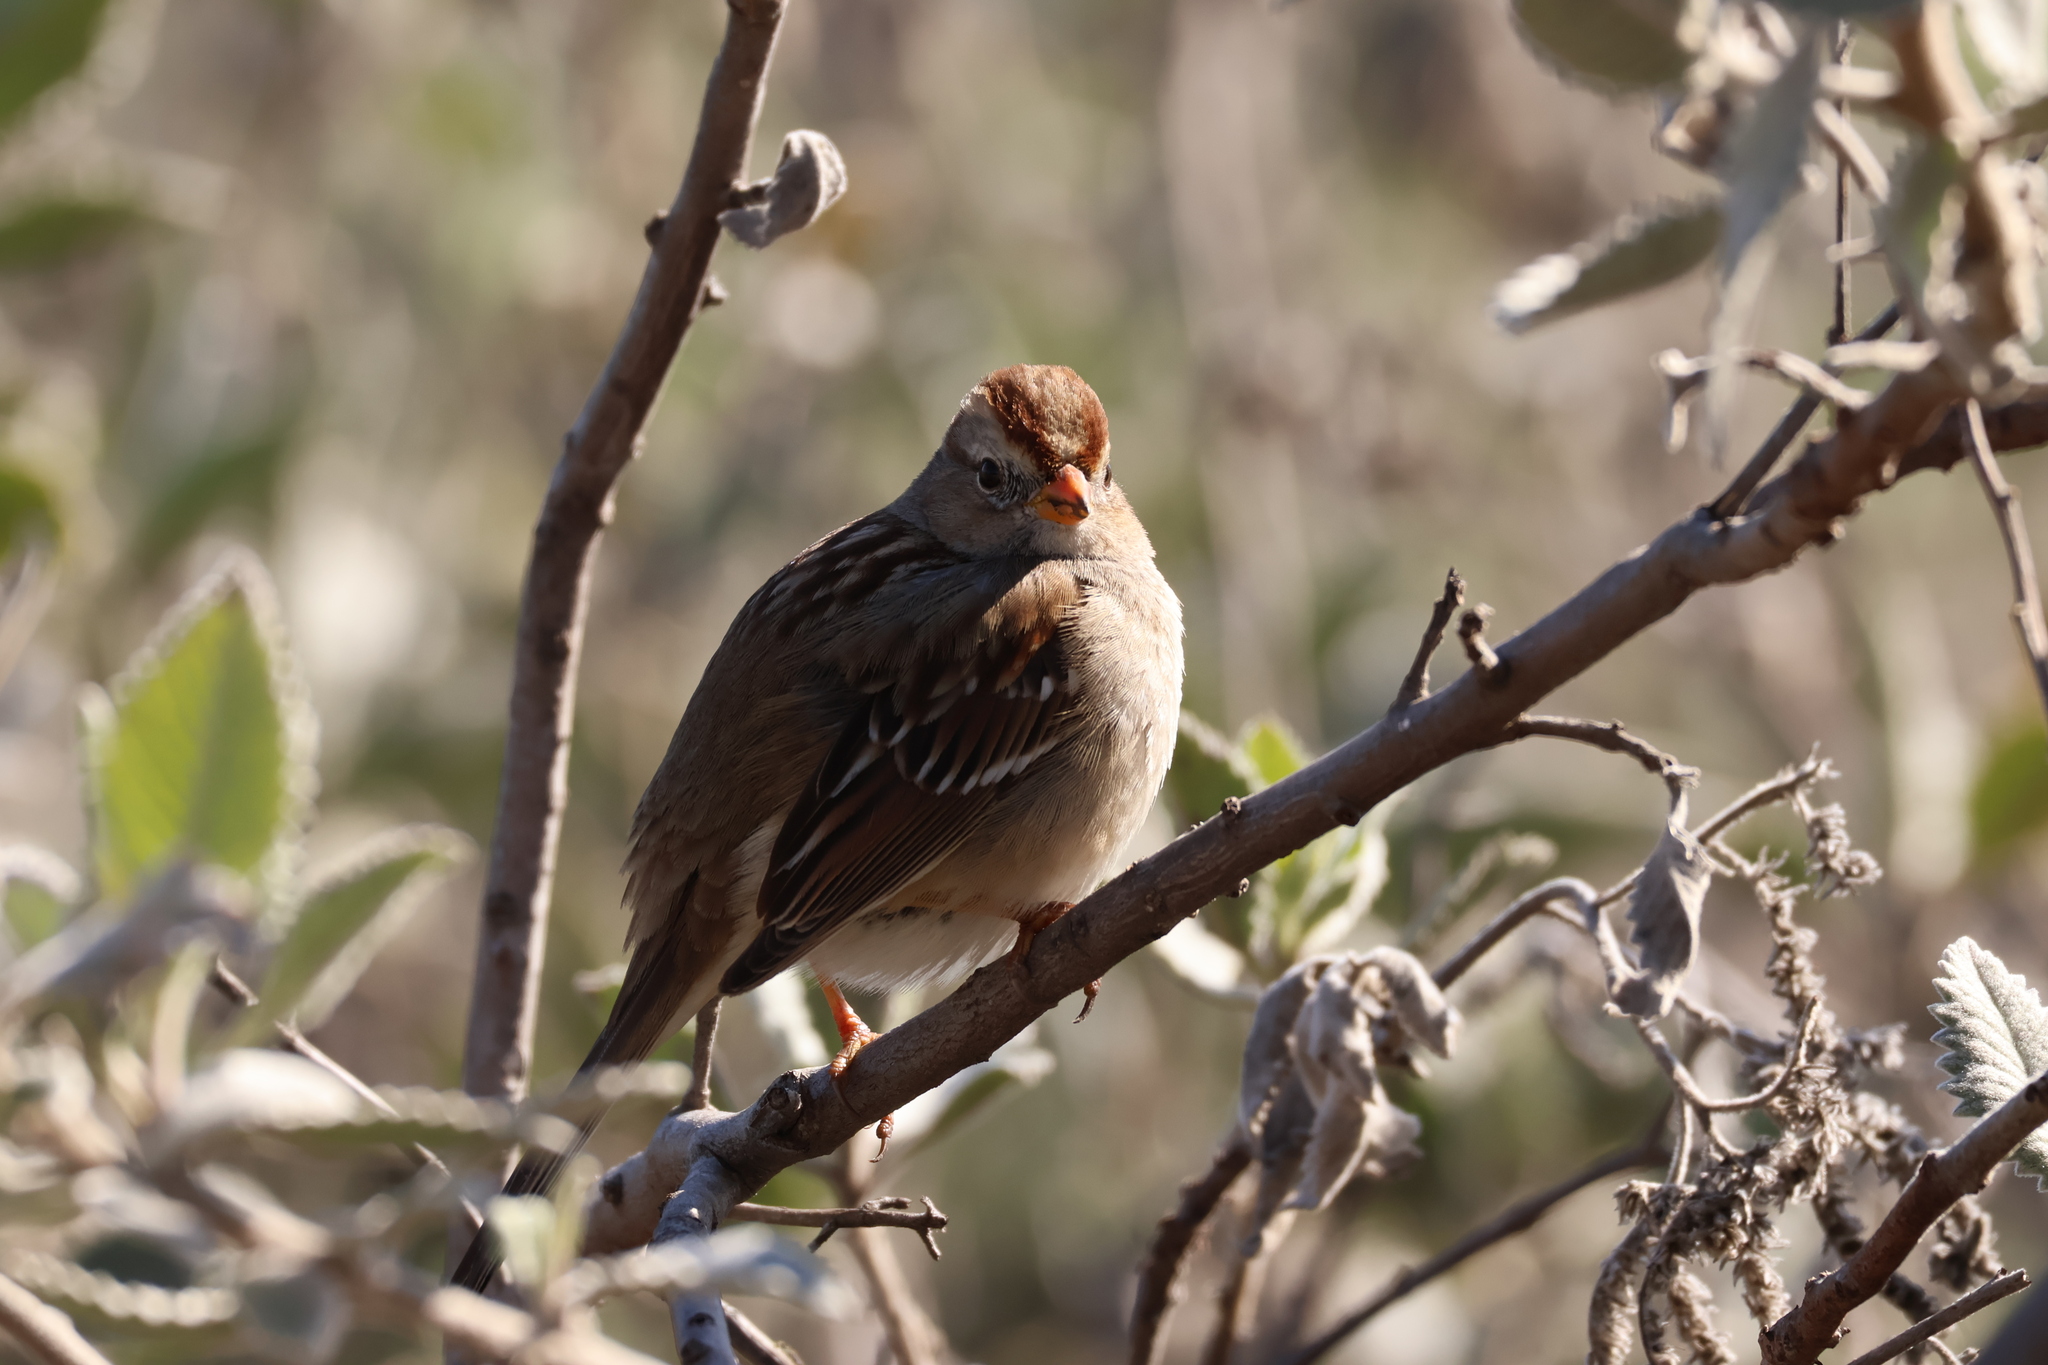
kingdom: Animalia
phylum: Chordata
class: Aves
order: Passeriformes
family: Passerellidae
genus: Zonotrichia
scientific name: Zonotrichia leucophrys
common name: White-crowned sparrow
